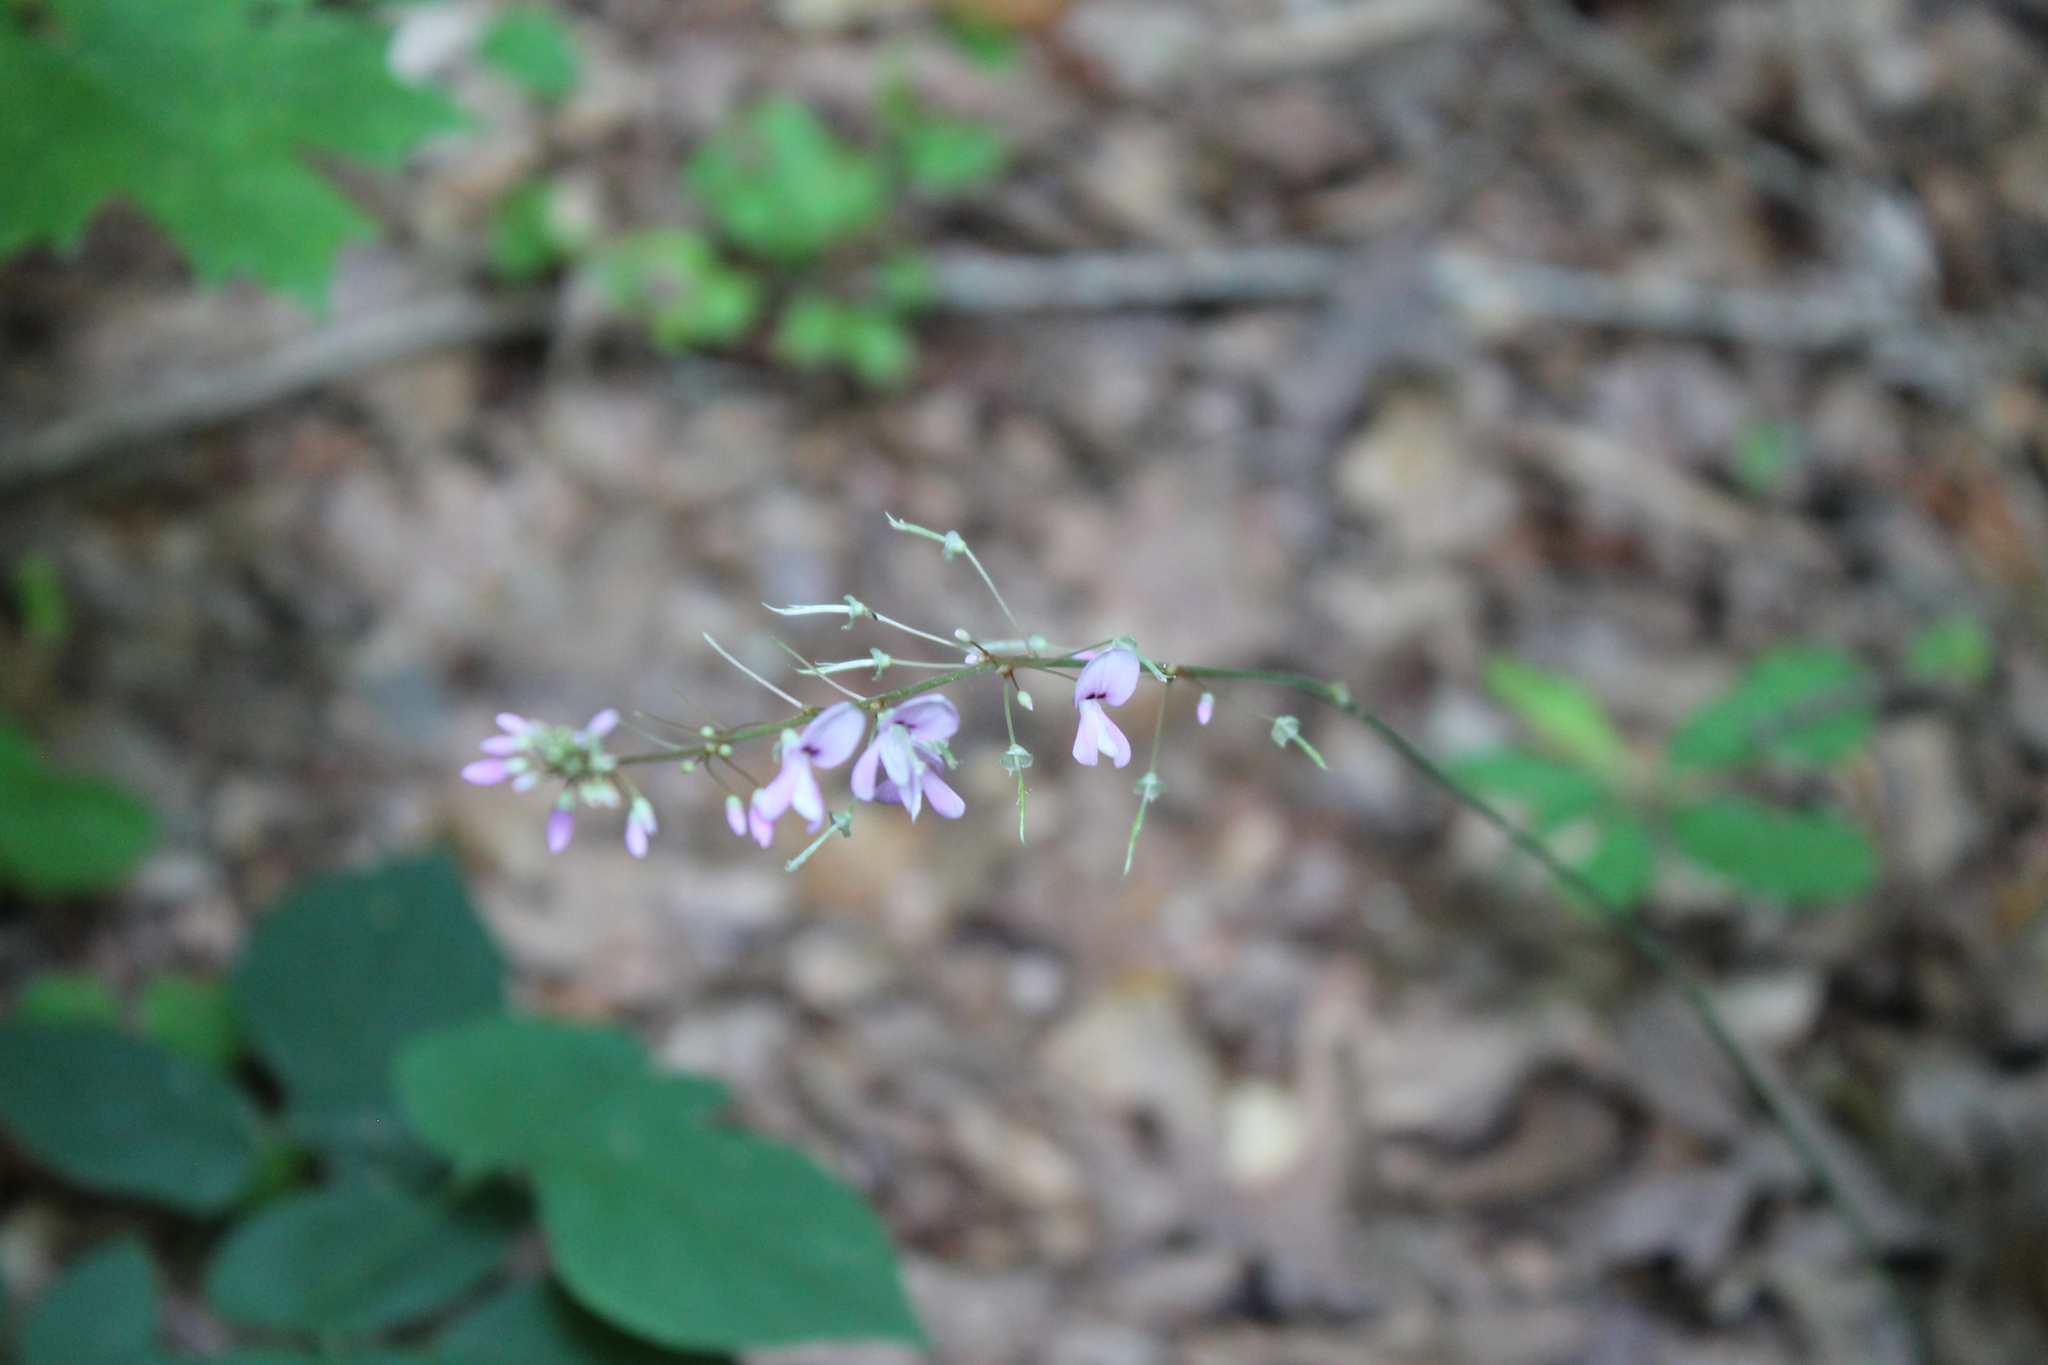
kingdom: Plantae
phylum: Tracheophyta
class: Magnoliopsida
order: Fabales
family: Fabaceae
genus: Hylodesmum
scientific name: Hylodesmum nudiflorum
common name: Bare-stemmed tick-trefoil
